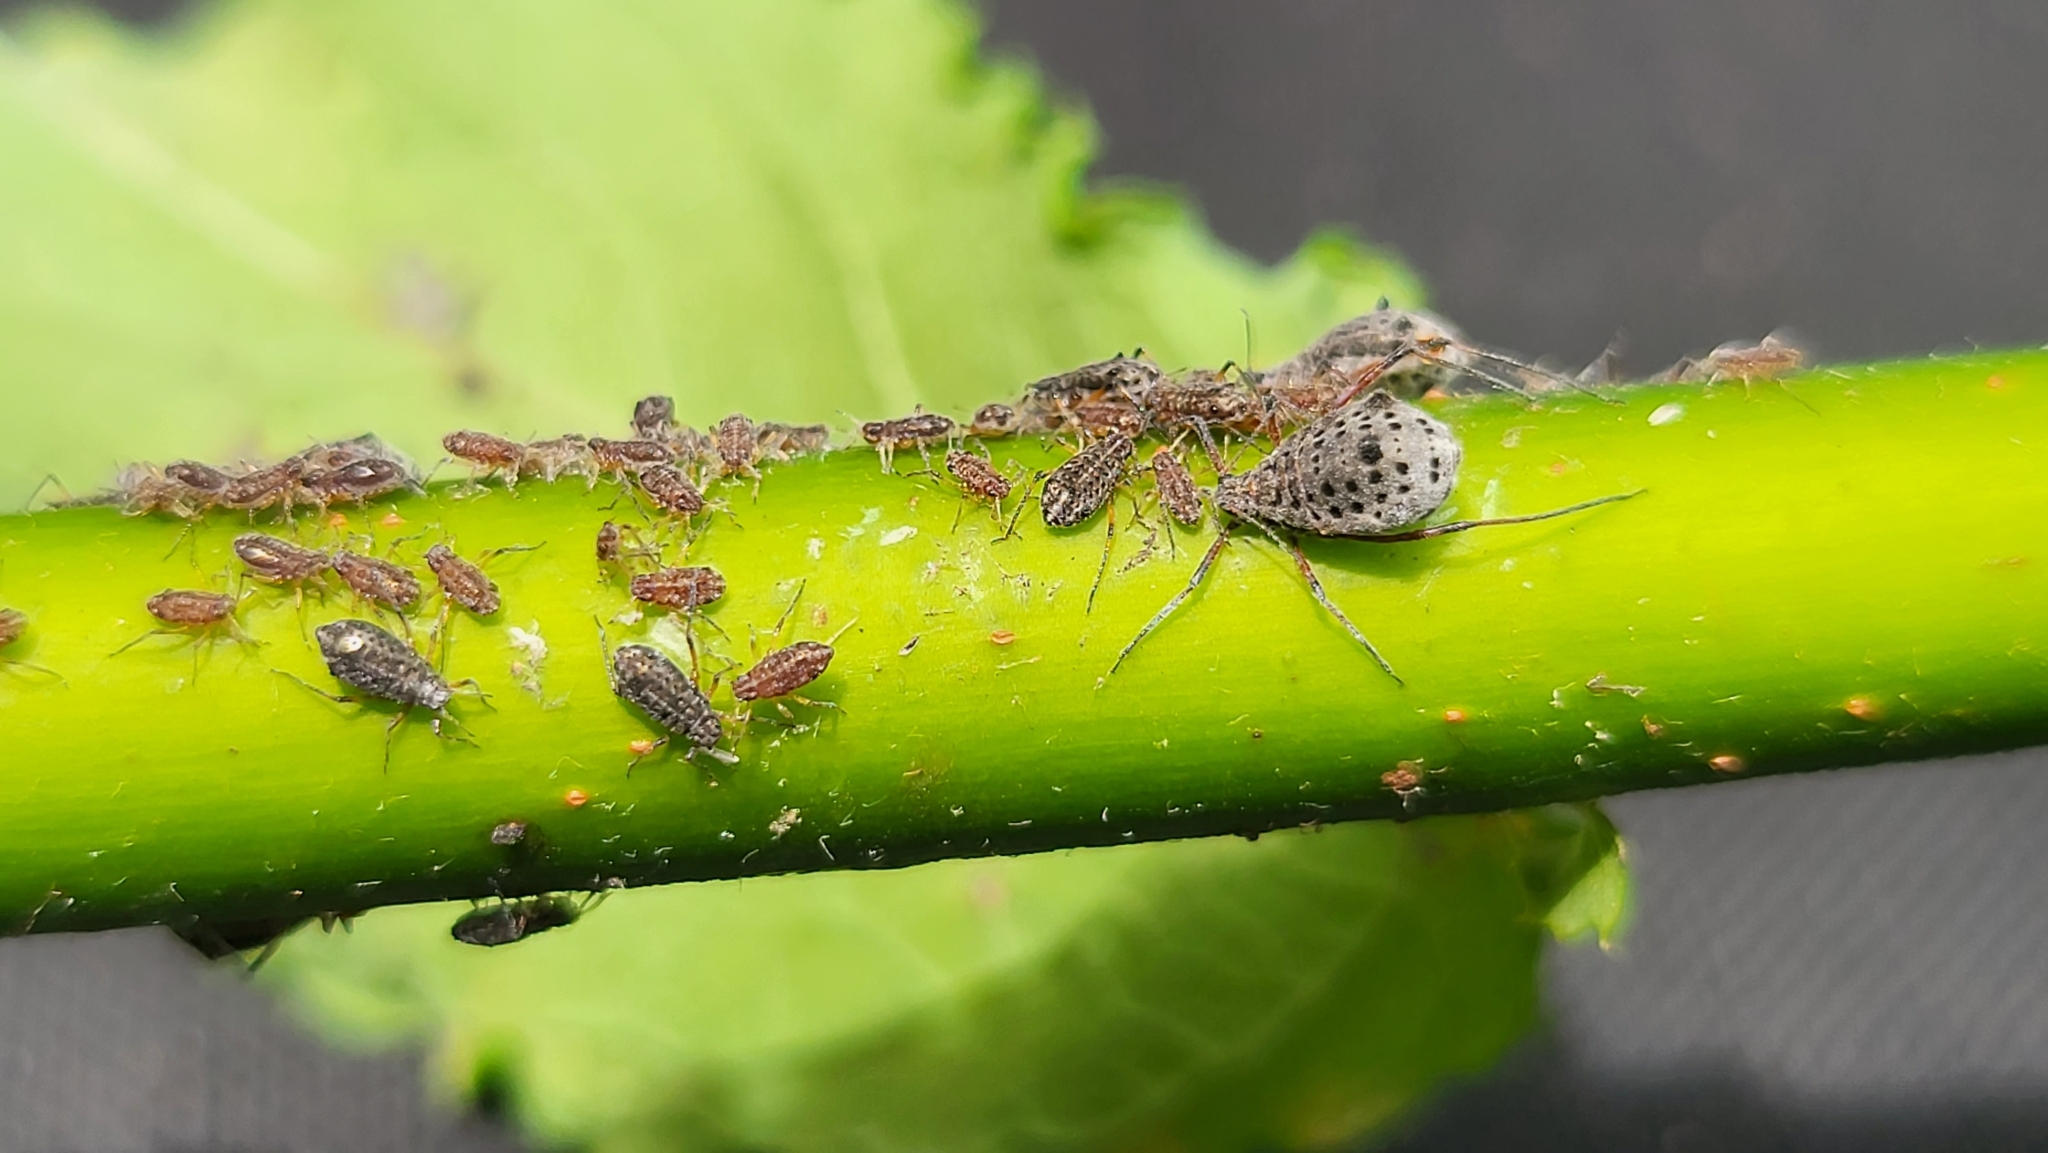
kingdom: Animalia
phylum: Arthropoda
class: Insecta
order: Hemiptera
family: Aphididae
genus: Tuberolachnus
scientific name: Tuberolachnus salignus
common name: Giant willow aphid
